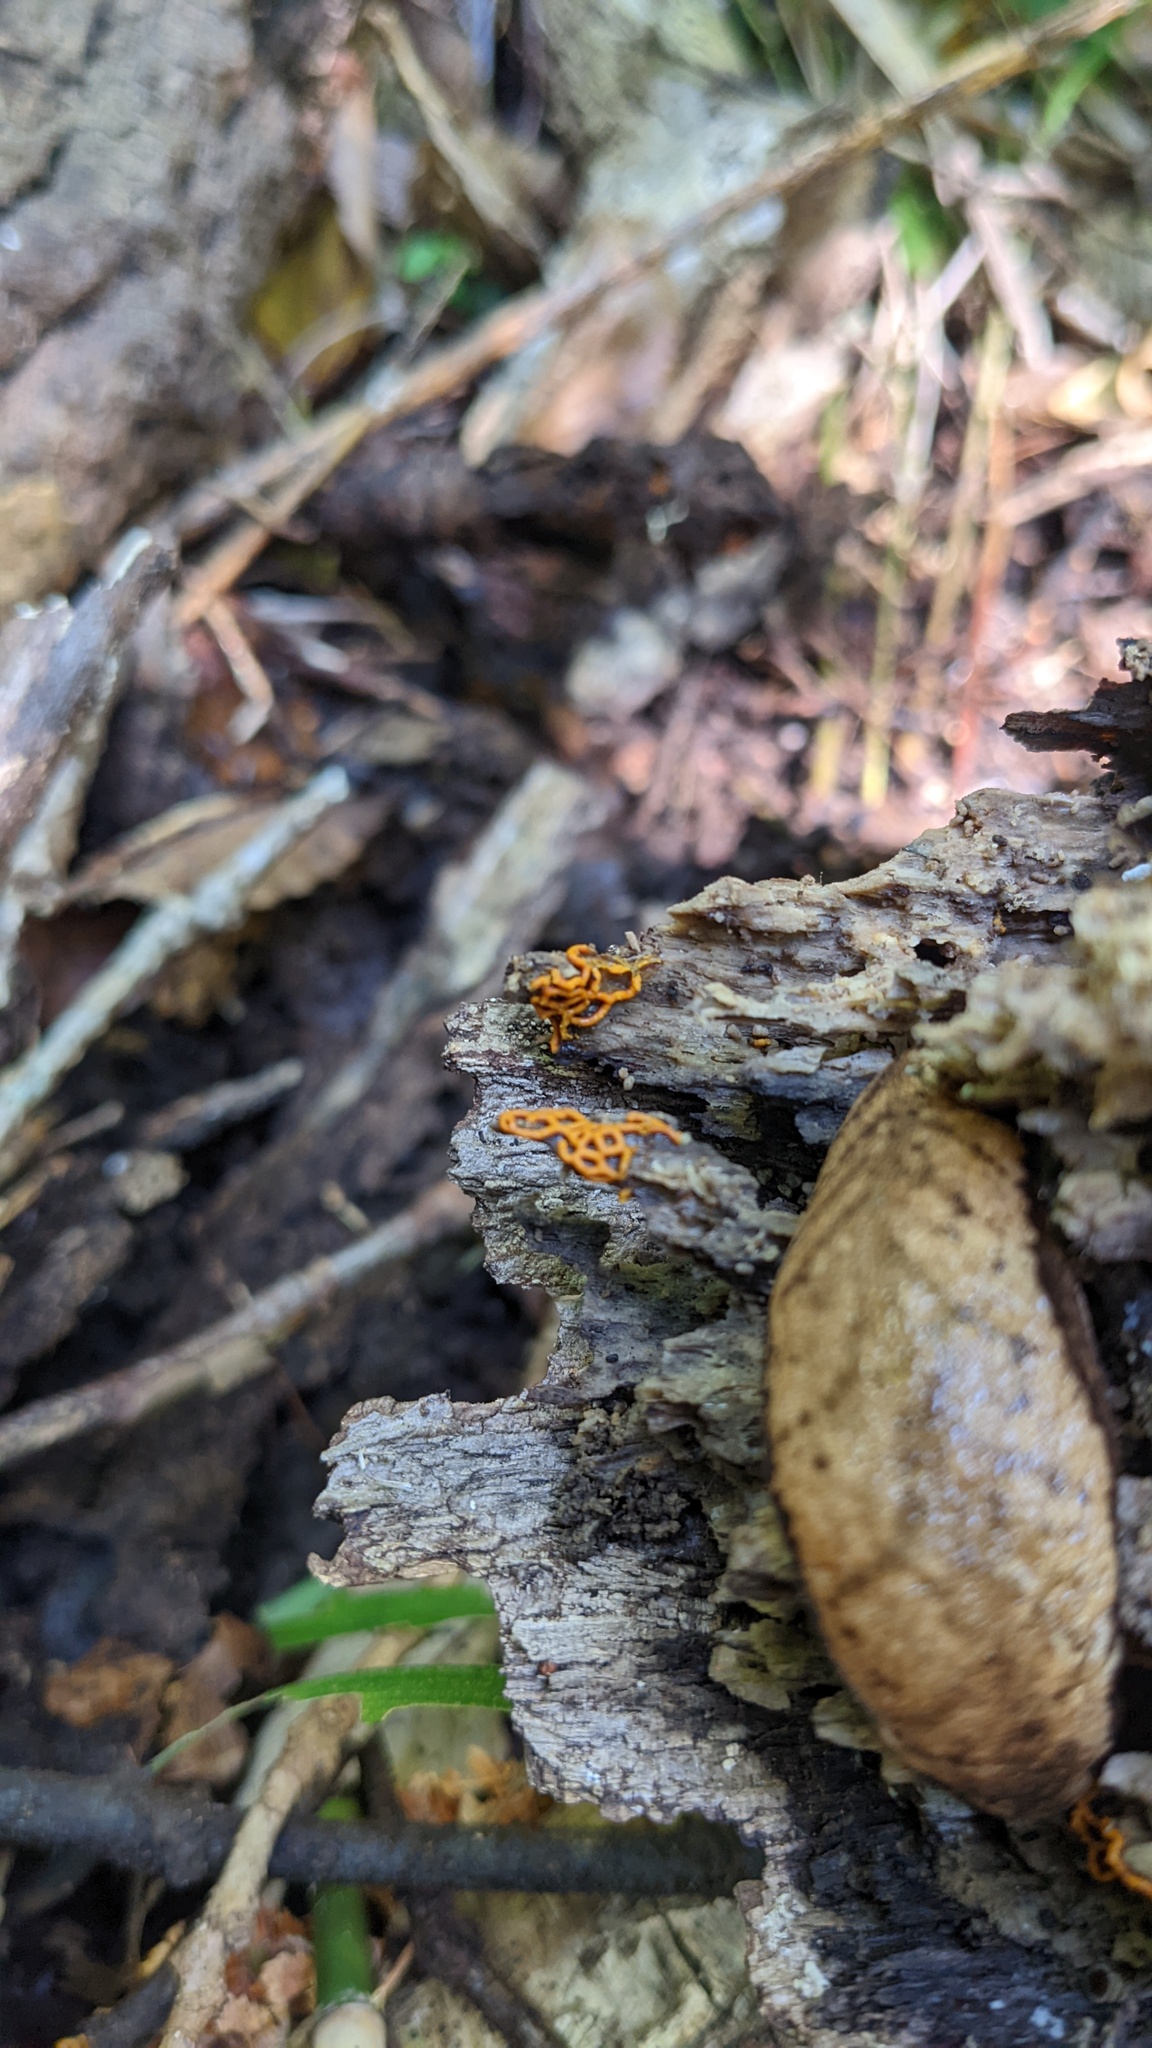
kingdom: Protozoa
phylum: Mycetozoa
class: Myxomycetes
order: Trichiales
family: Arcyriaceae
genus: Hemitrichia
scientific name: Hemitrichia serpula
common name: Pretzel slime mold
